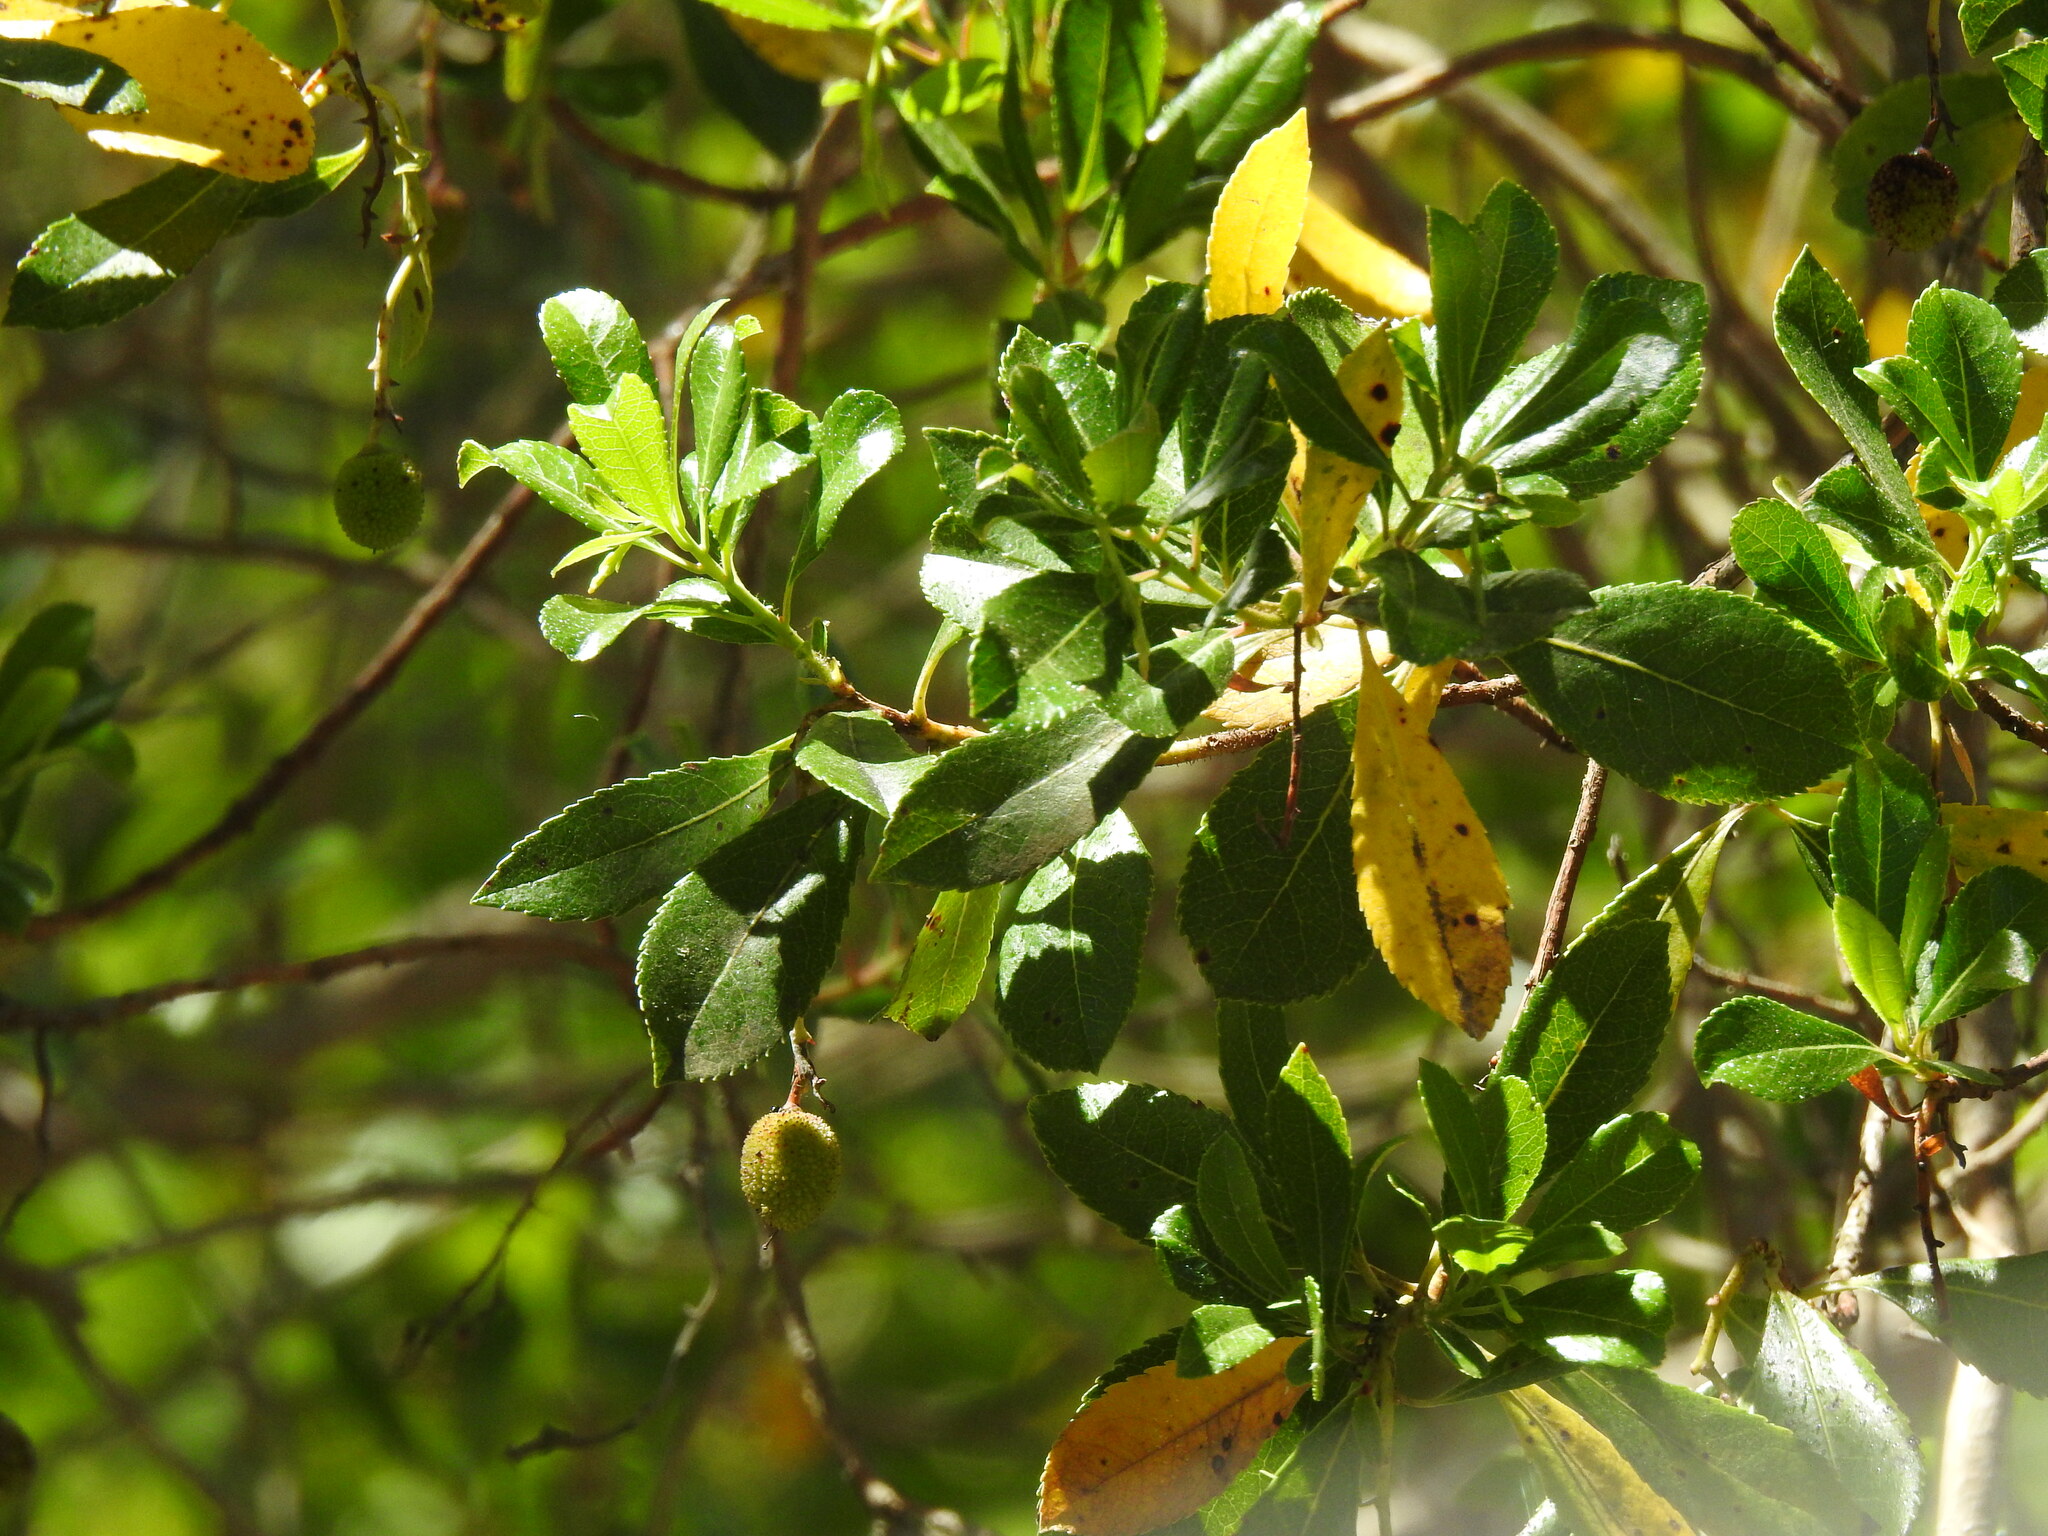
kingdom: Plantae
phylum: Tracheophyta
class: Magnoliopsida
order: Ericales
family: Ericaceae
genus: Arbutus
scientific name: Arbutus unedo
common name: Strawberry-tree
